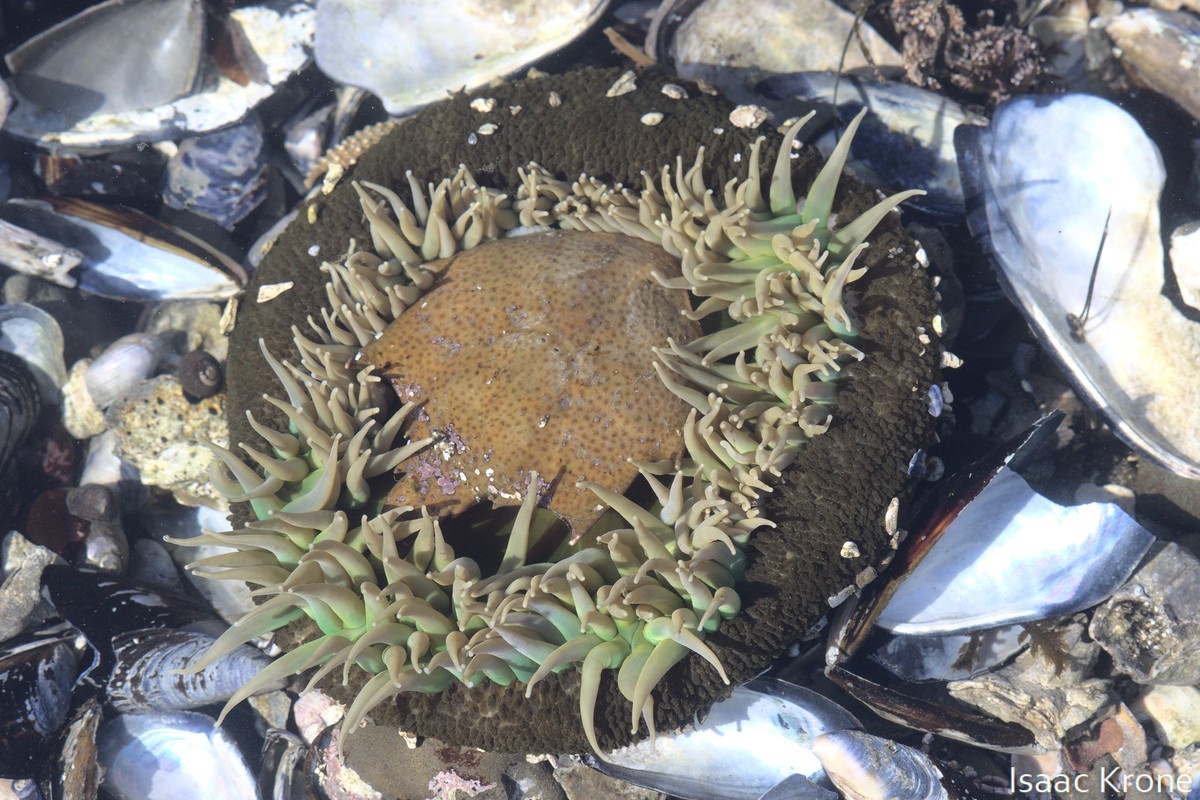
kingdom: Animalia
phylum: Cnidaria
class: Anthozoa
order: Actiniaria
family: Actiniidae
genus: Anthopleura
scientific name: Anthopleura xanthogrammica
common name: Giant green anemone
